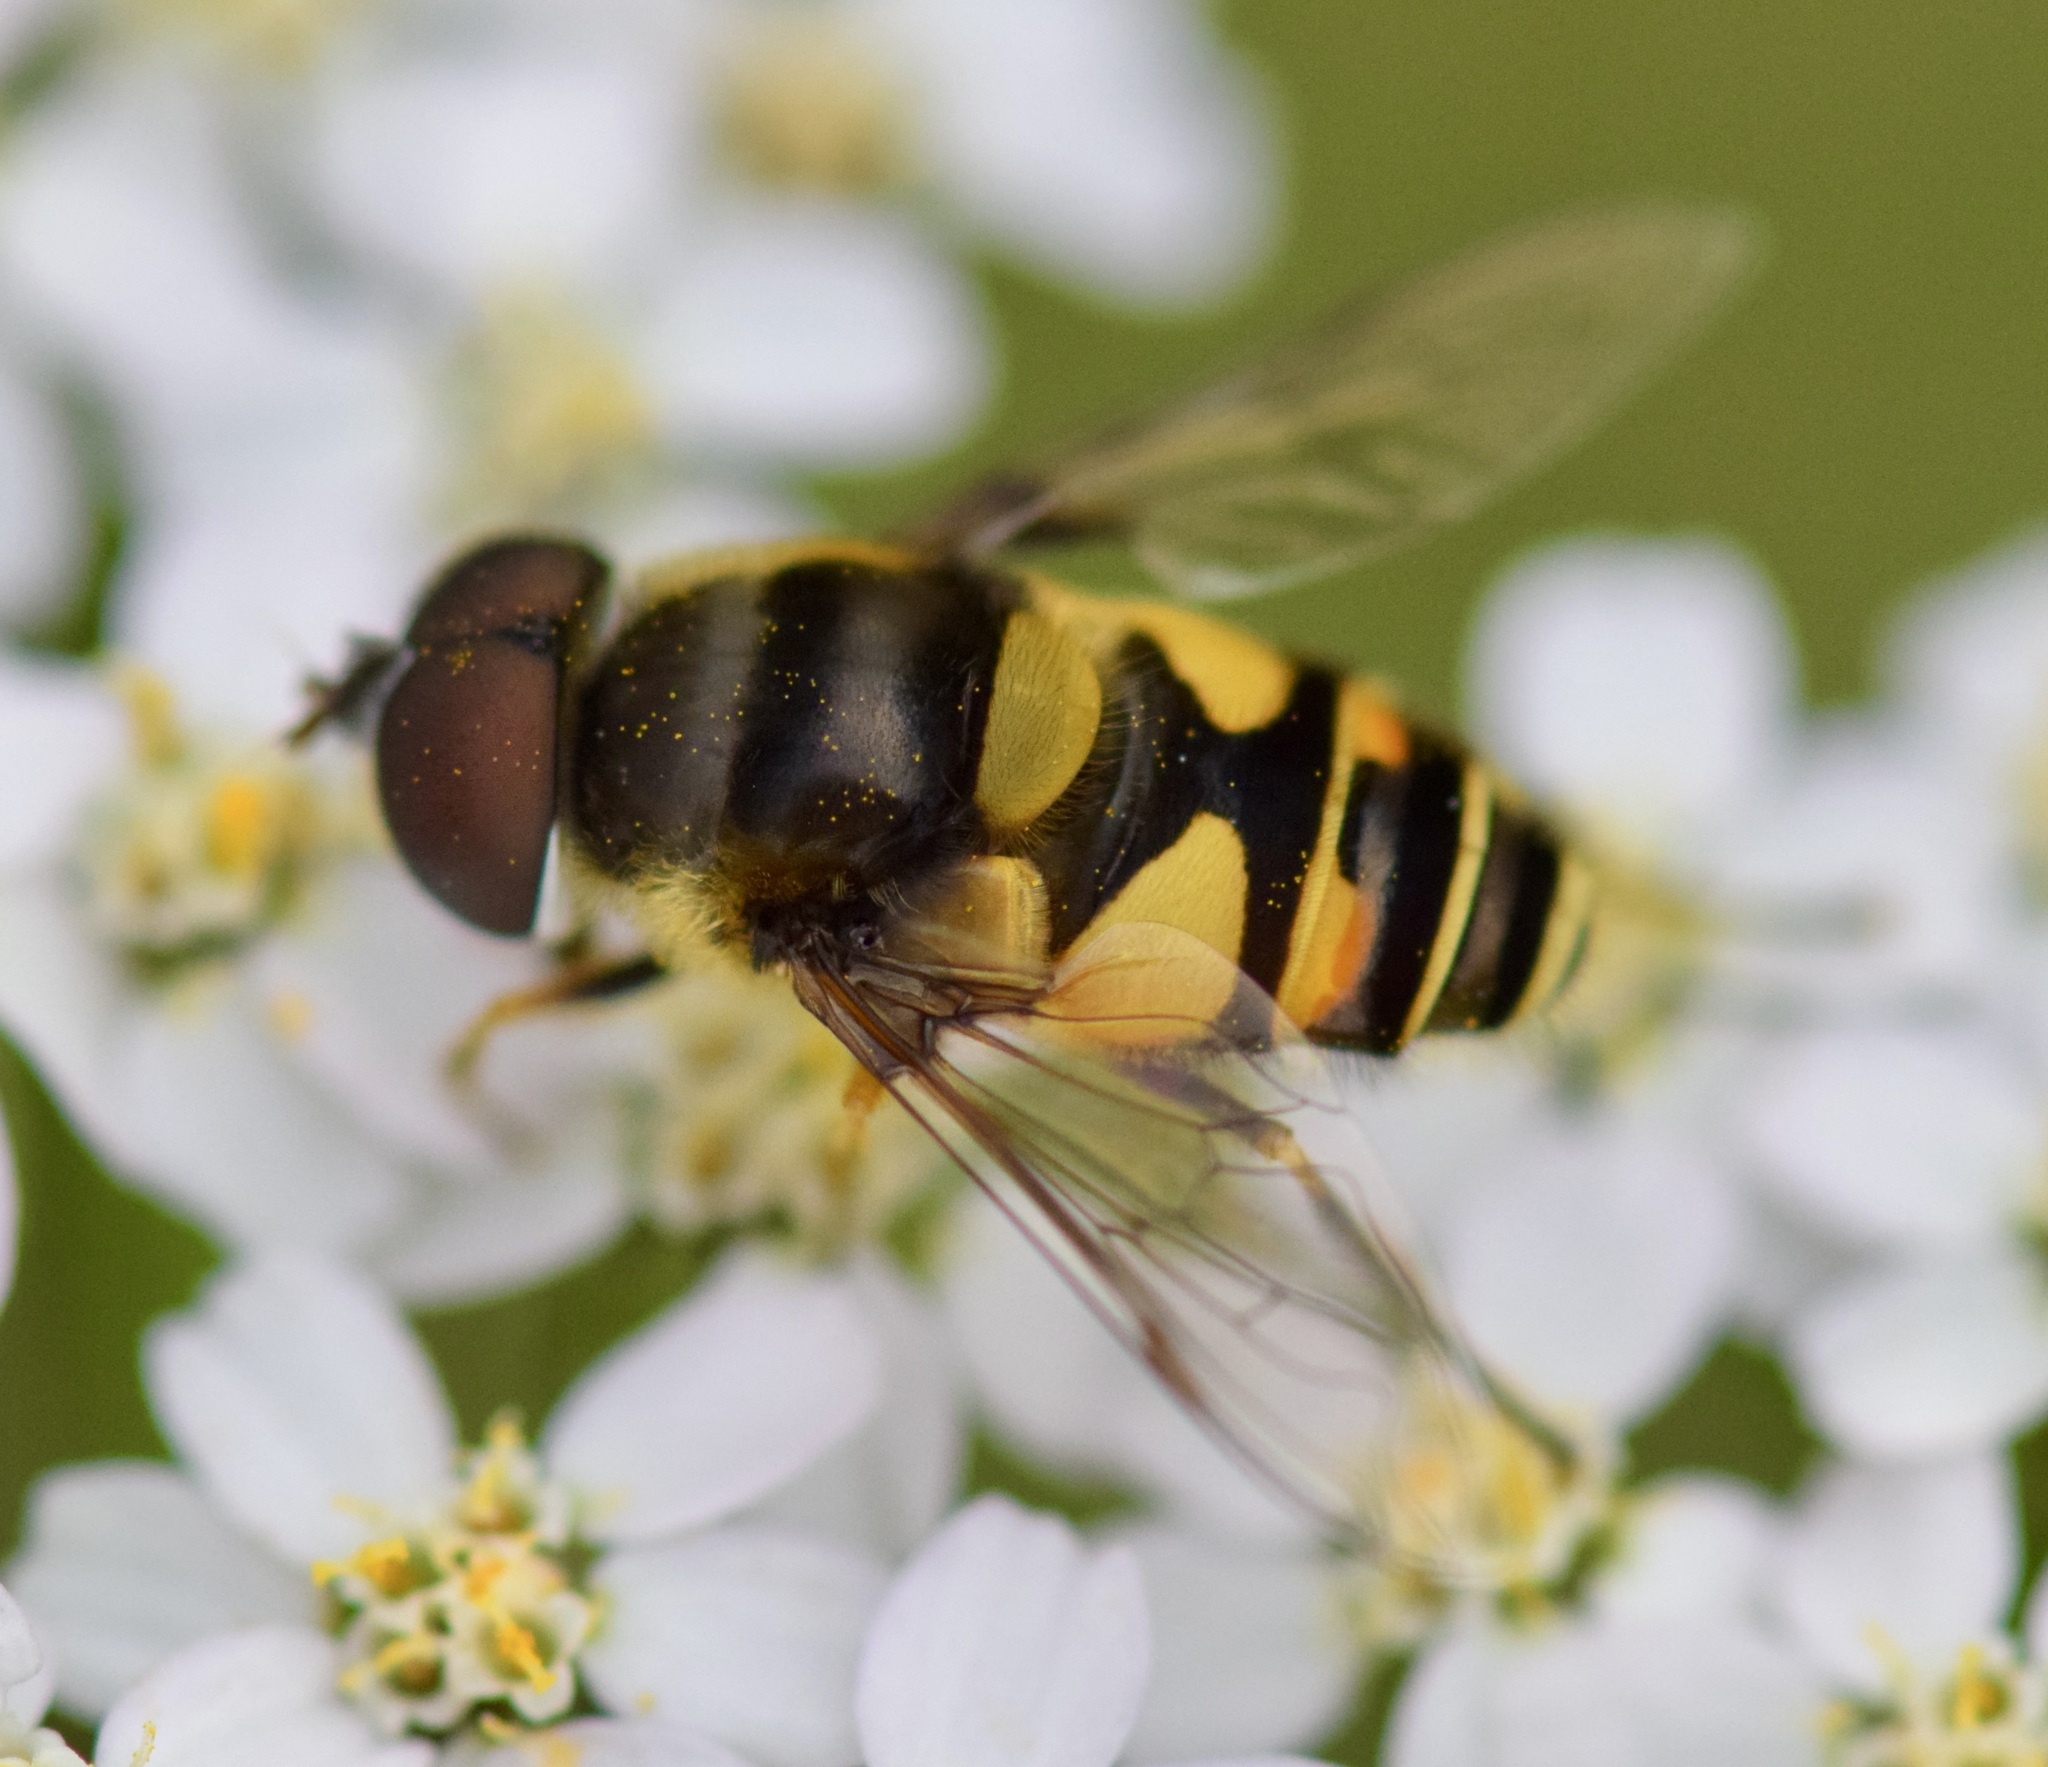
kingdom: Animalia
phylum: Arthropoda
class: Insecta
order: Diptera
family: Syrphidae
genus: Eristalis
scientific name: Eristalis transversa
